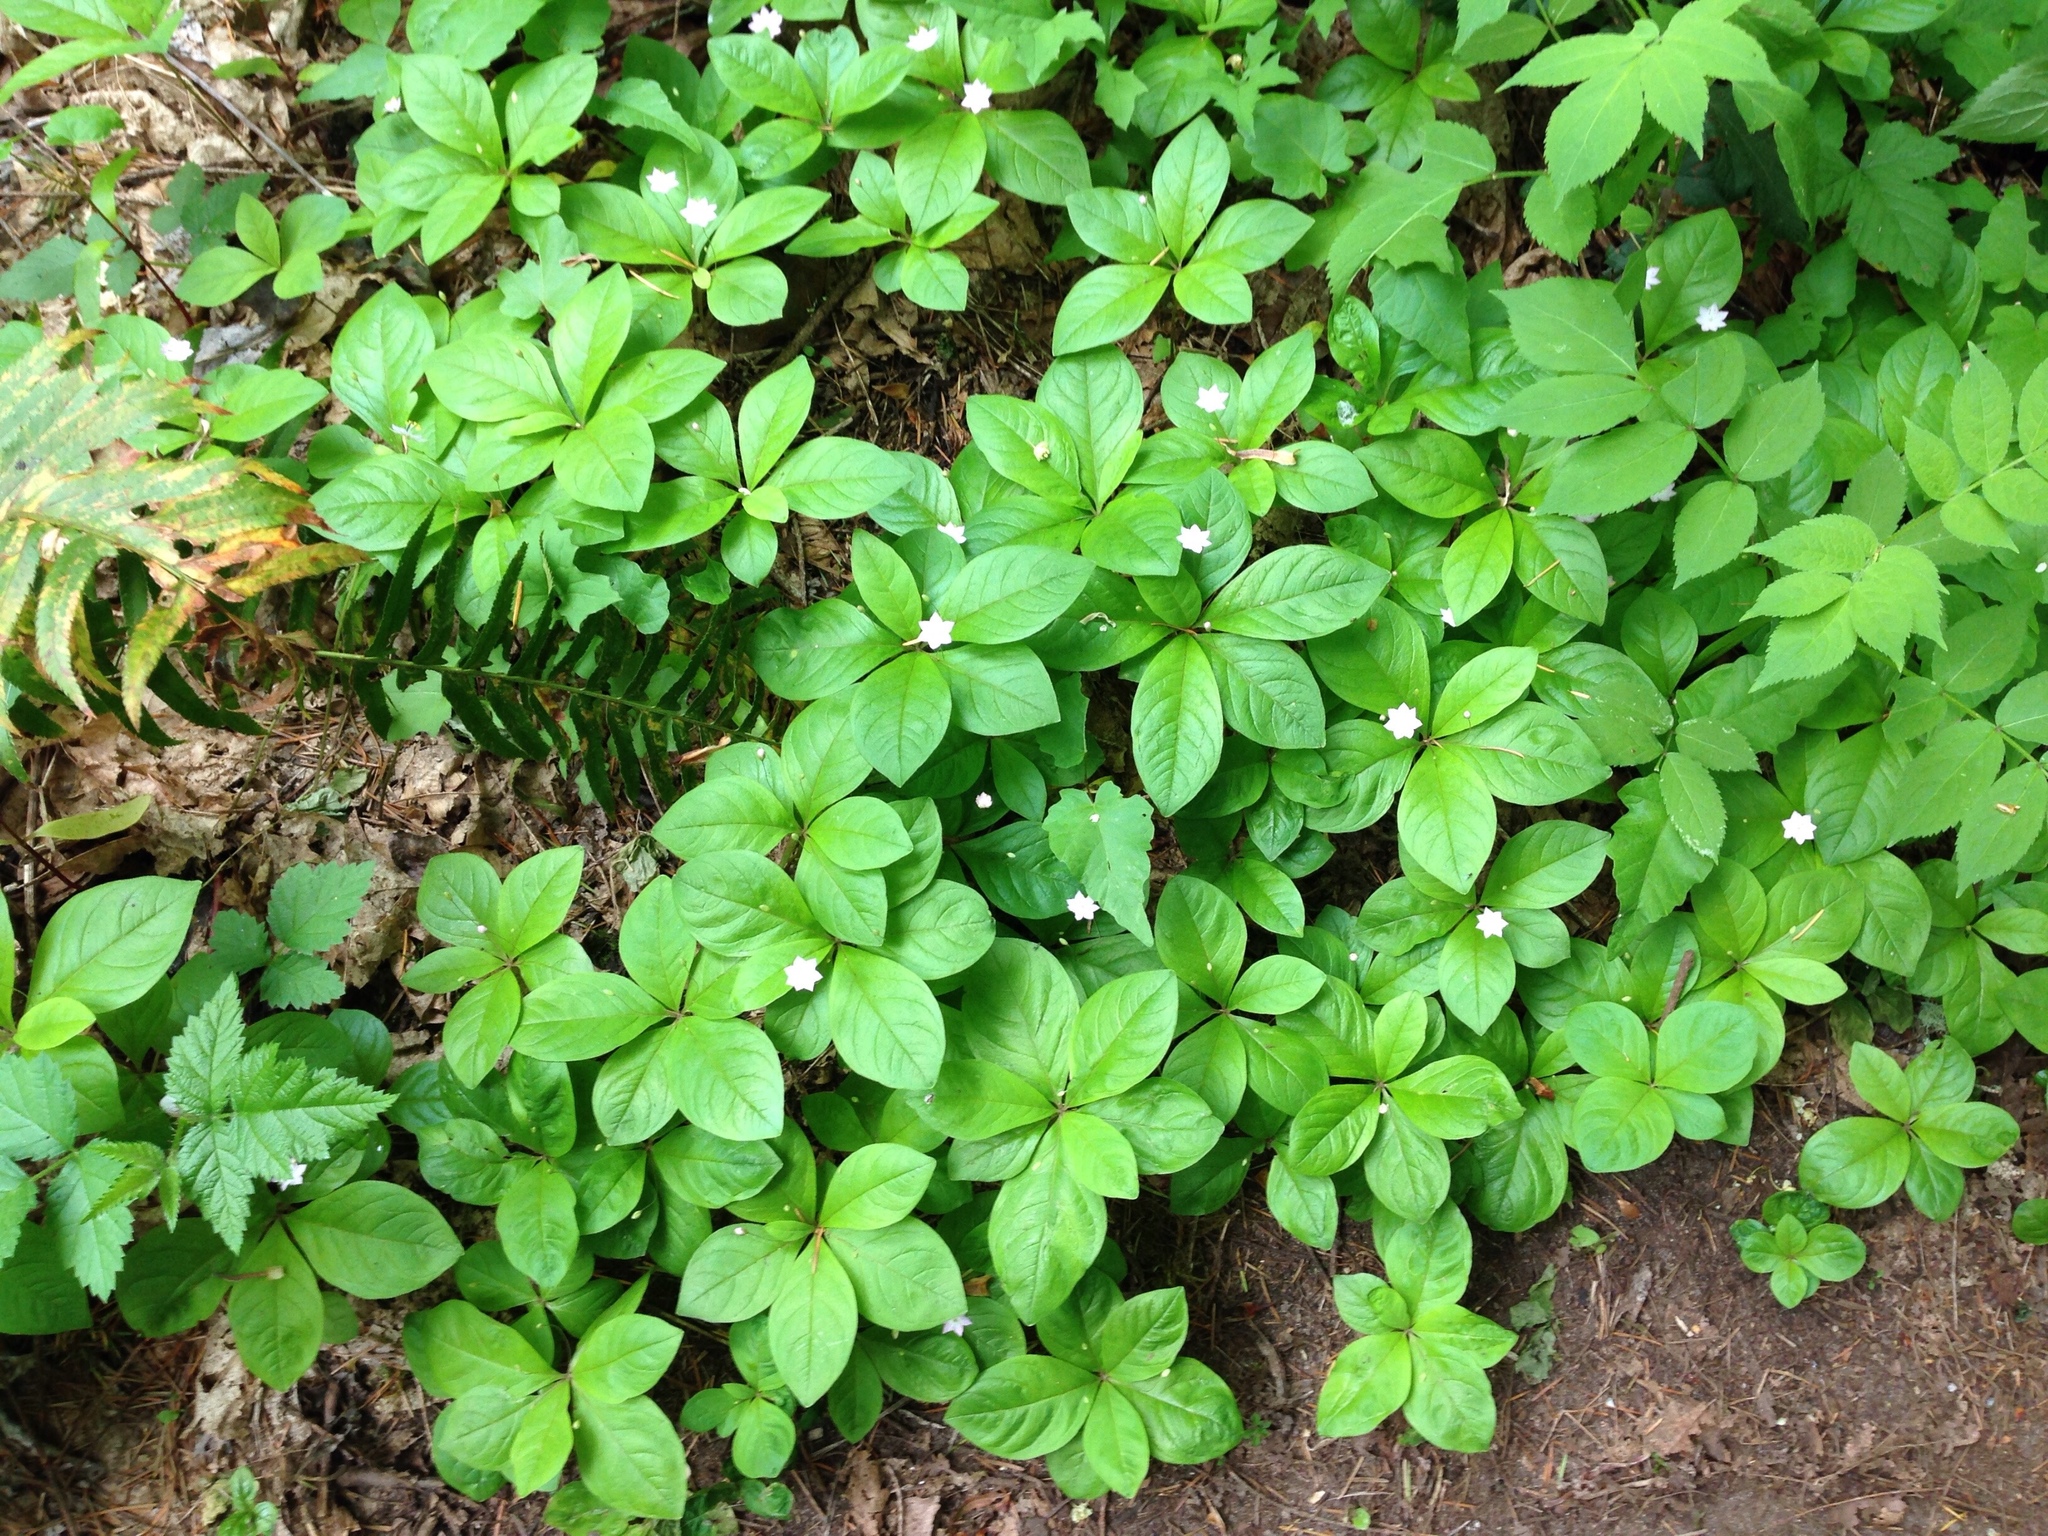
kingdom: Plantae
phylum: Tracheophyta
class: Magnoliopsida
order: Ericales
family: Primulaceae
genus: Lysimachia
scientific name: Lysimachia latifolia
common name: Pacific starflower
